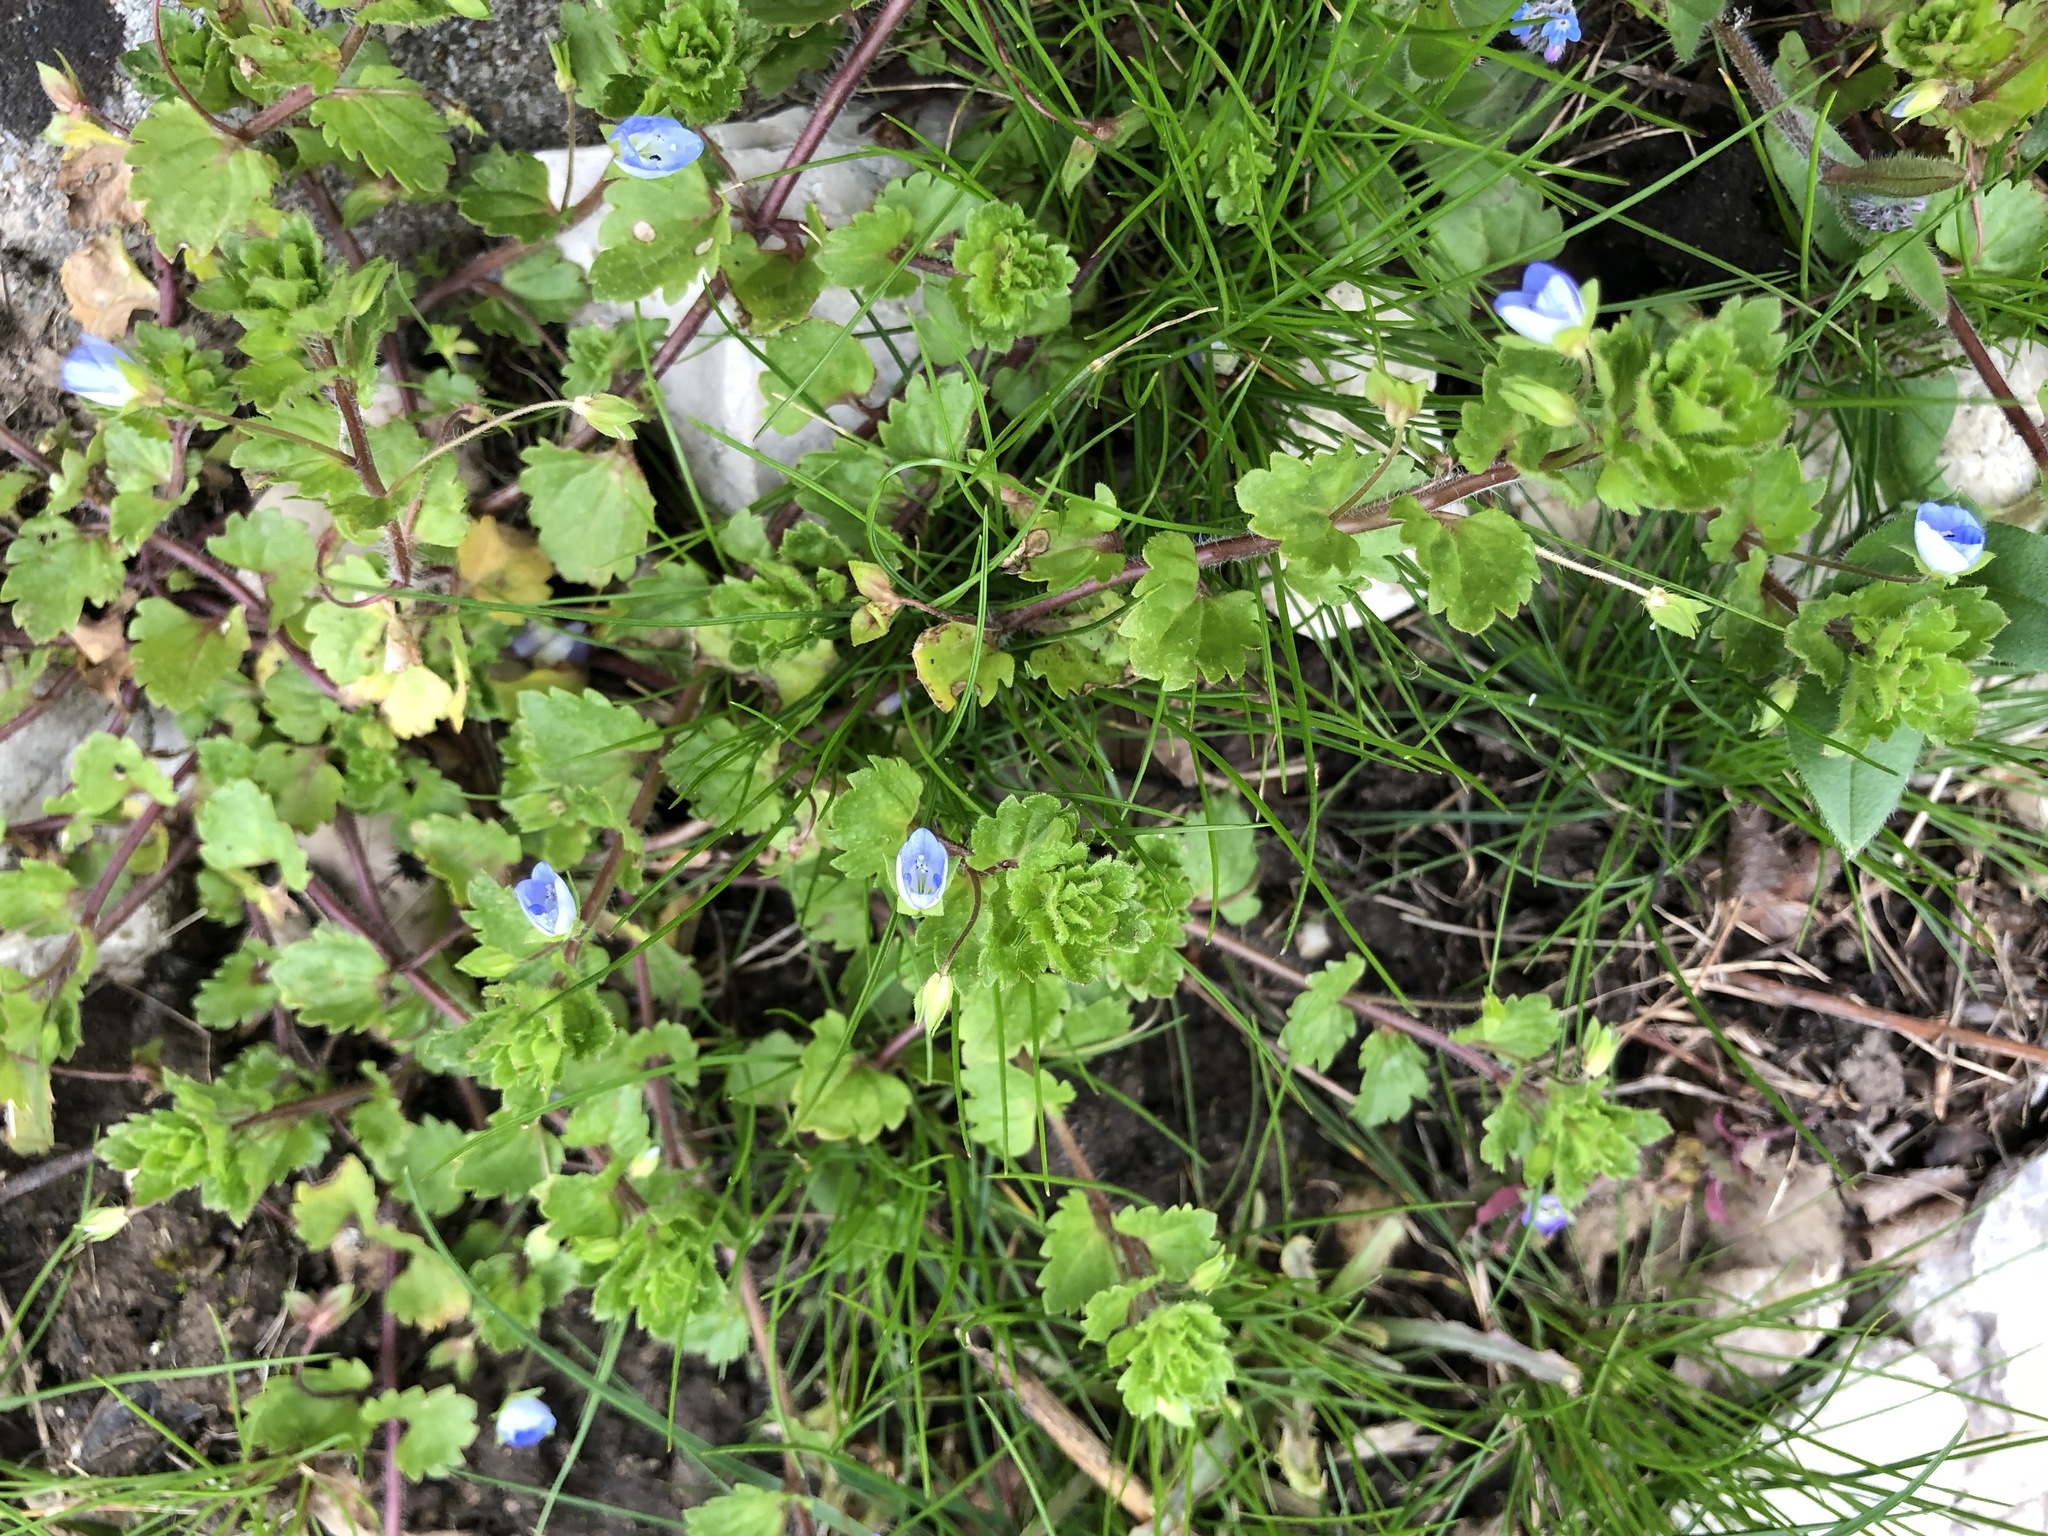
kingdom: Plantae
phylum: Tracheophyta
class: Magnoliopsida
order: Lamiales
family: Plantaginaceae
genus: Veronica
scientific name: Veronica persica
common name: Common field-speedwell
